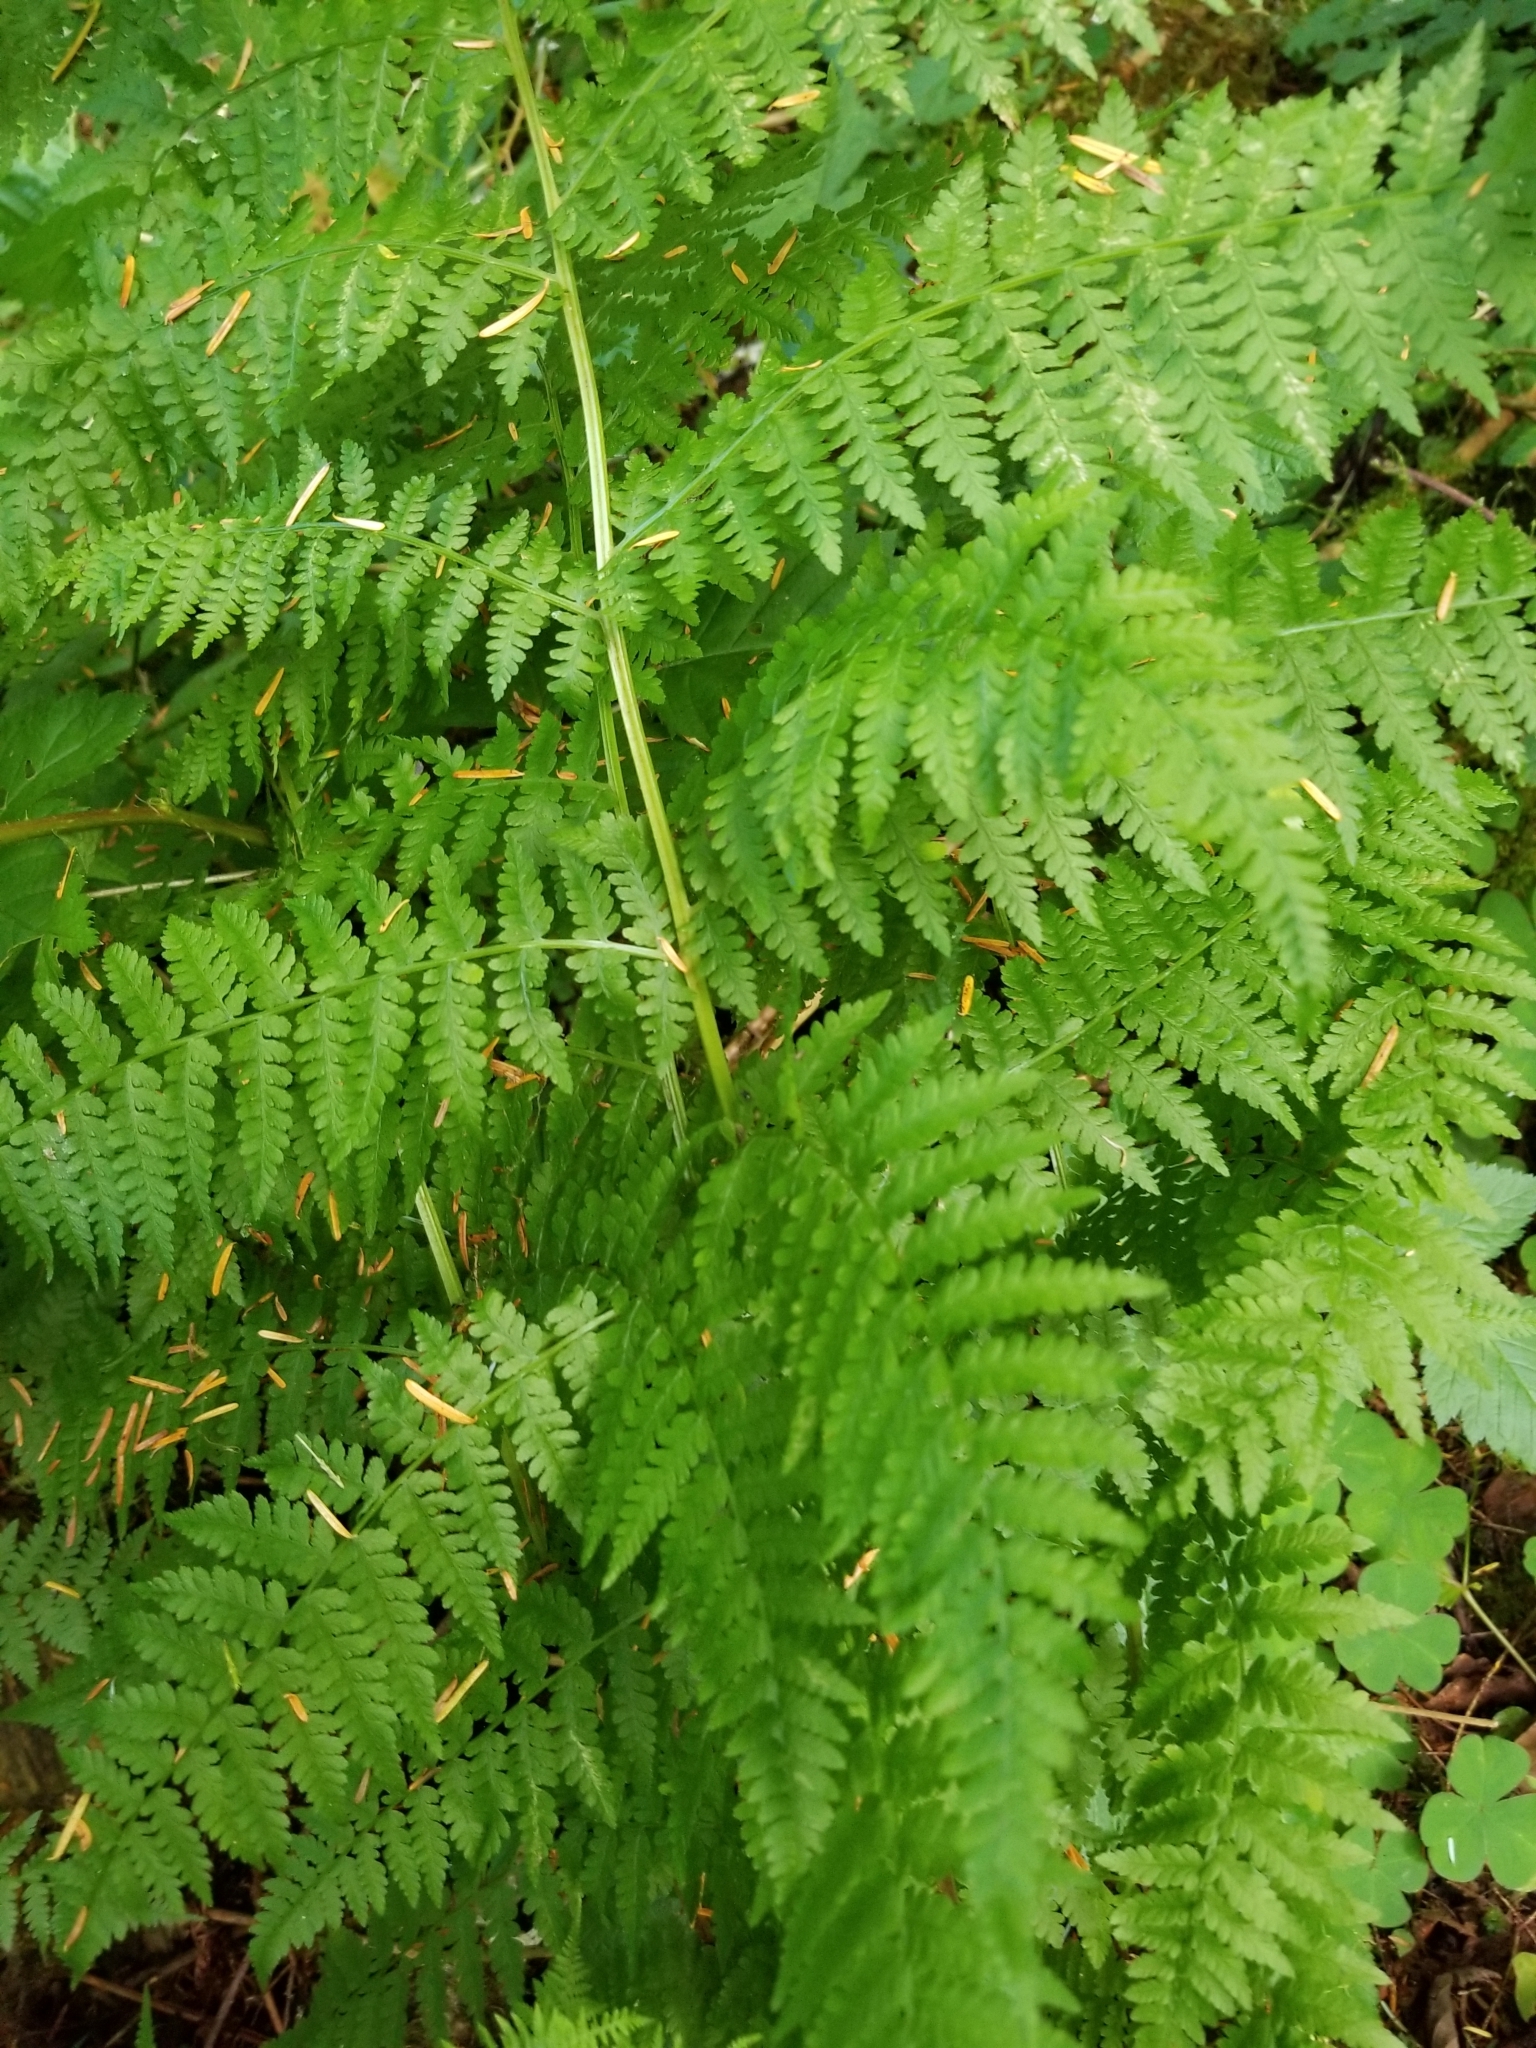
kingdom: Plantae
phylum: Tracheophyta
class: Polypodiopsida
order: Polypodiales
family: Athyriaceae
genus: Athyrium
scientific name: Athyrium filix-femina
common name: Lady fern
